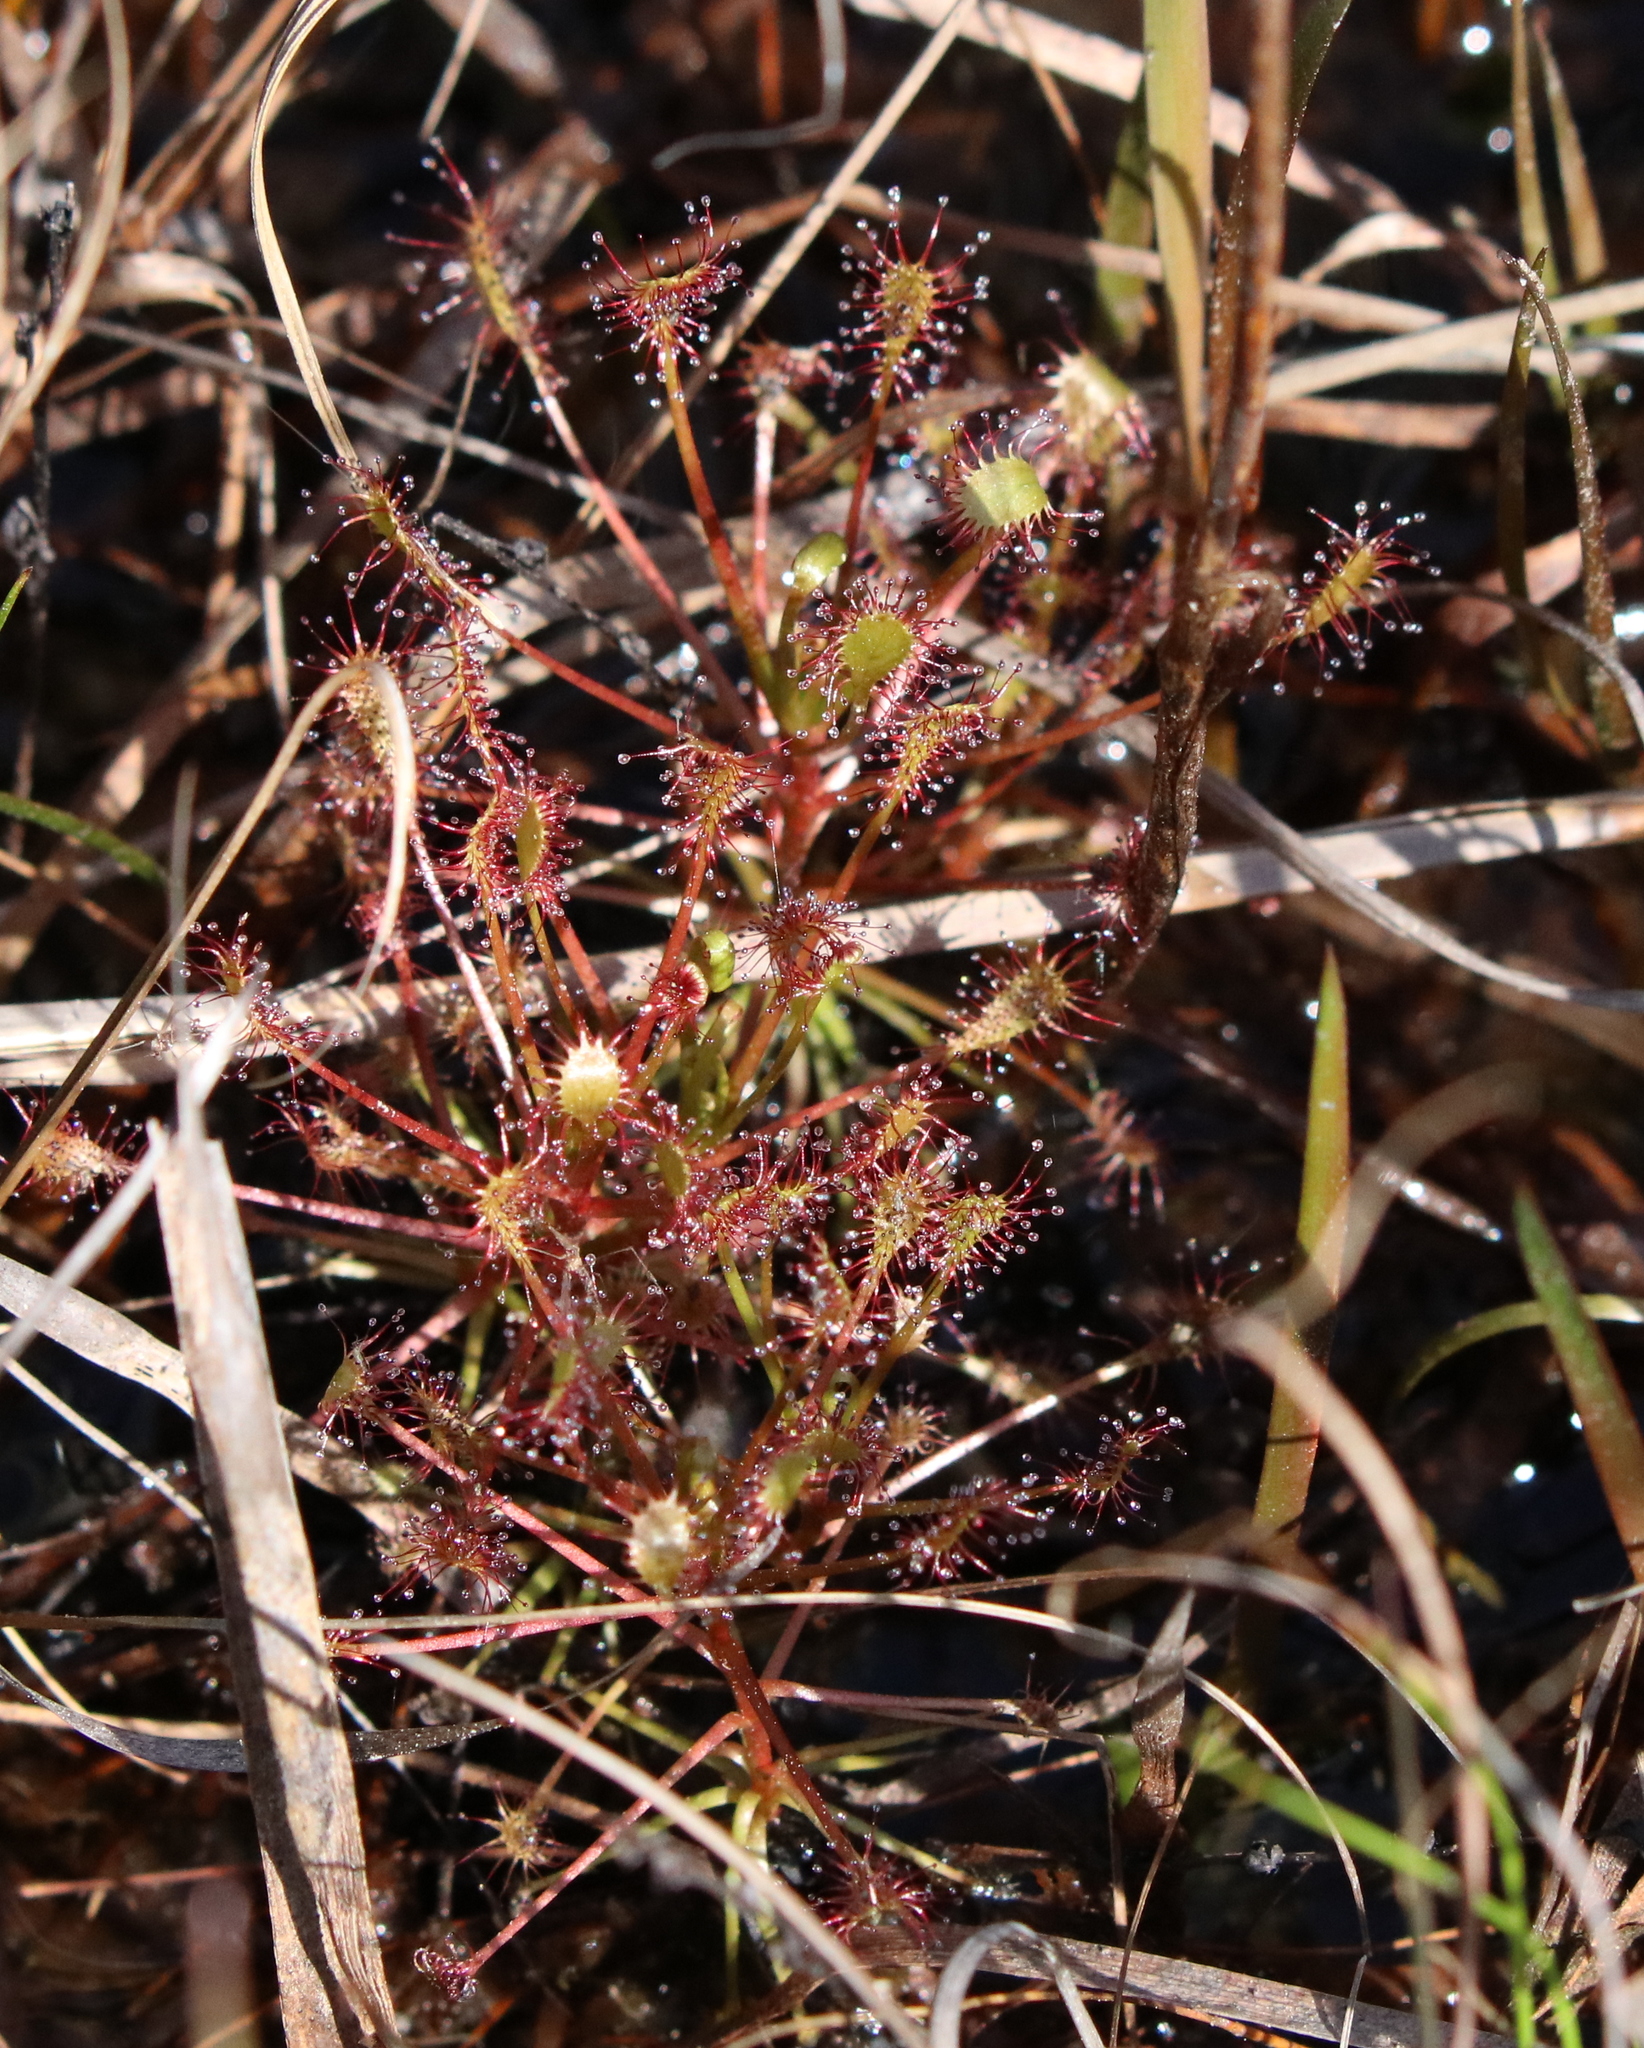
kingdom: Plantae
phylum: Tracheophyta
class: Magnoliopsida
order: Caryophyllales
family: Droseraceae
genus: Drosera
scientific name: Drosera intermedia
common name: Oblong-leaved sundew
